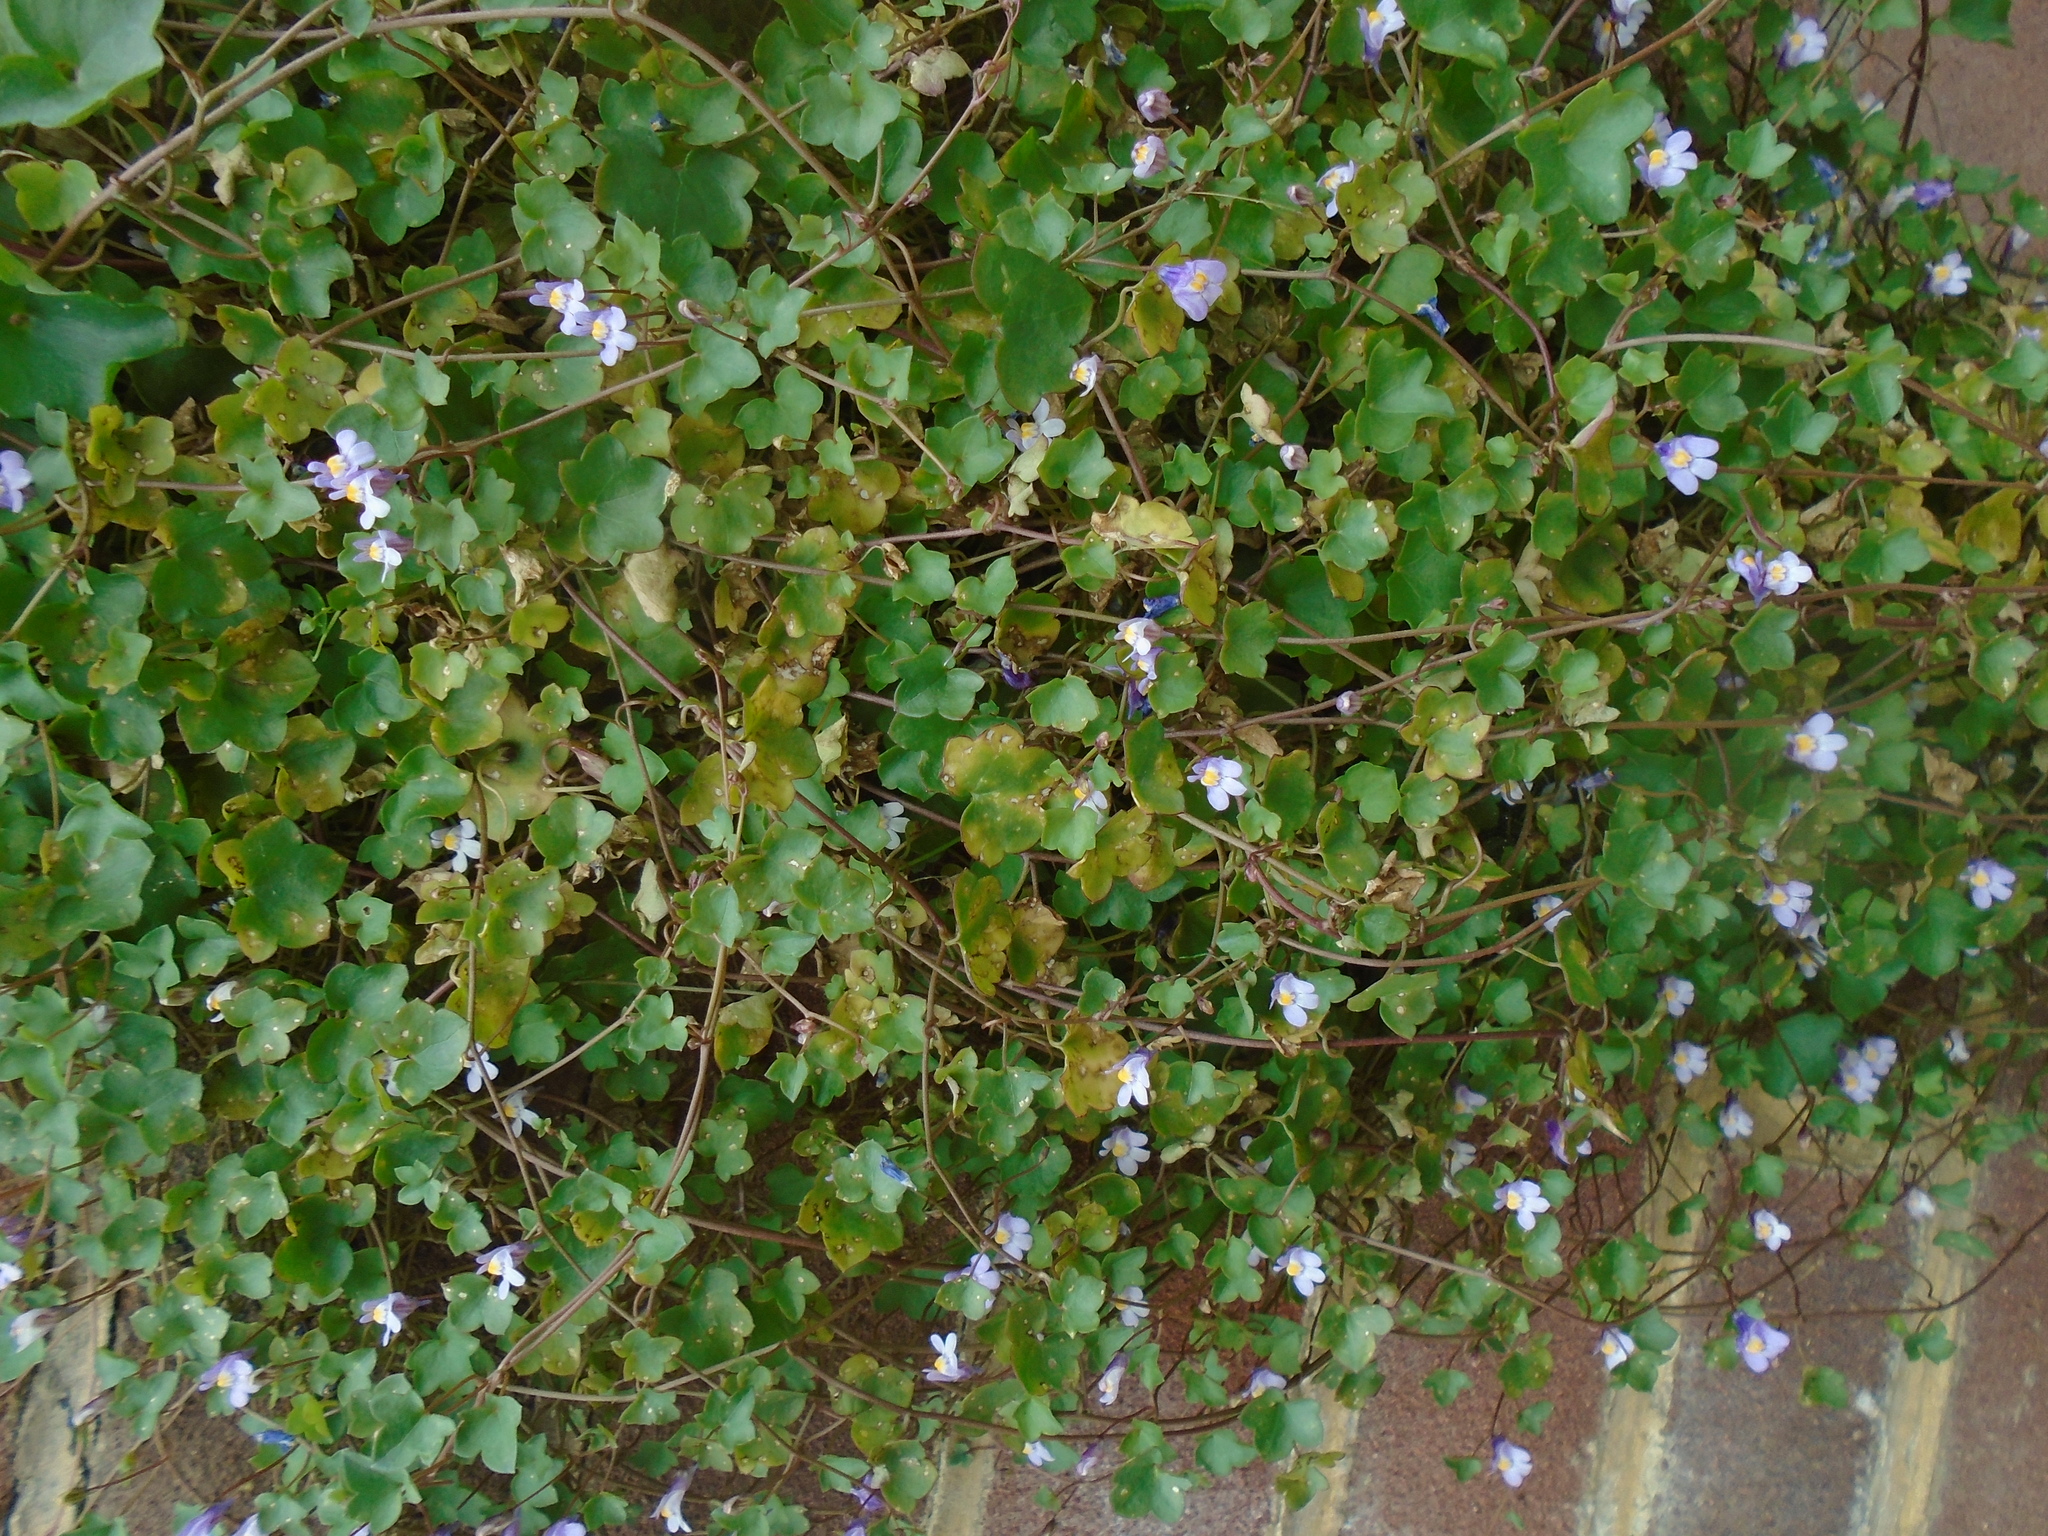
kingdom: Plantae
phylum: Tracheophyta
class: Magnoliopsida
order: Lamiales
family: Plantaginaceae
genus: Cymbalaria
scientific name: Cymbalaria muralis
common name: Ivy-leaved toadflax
